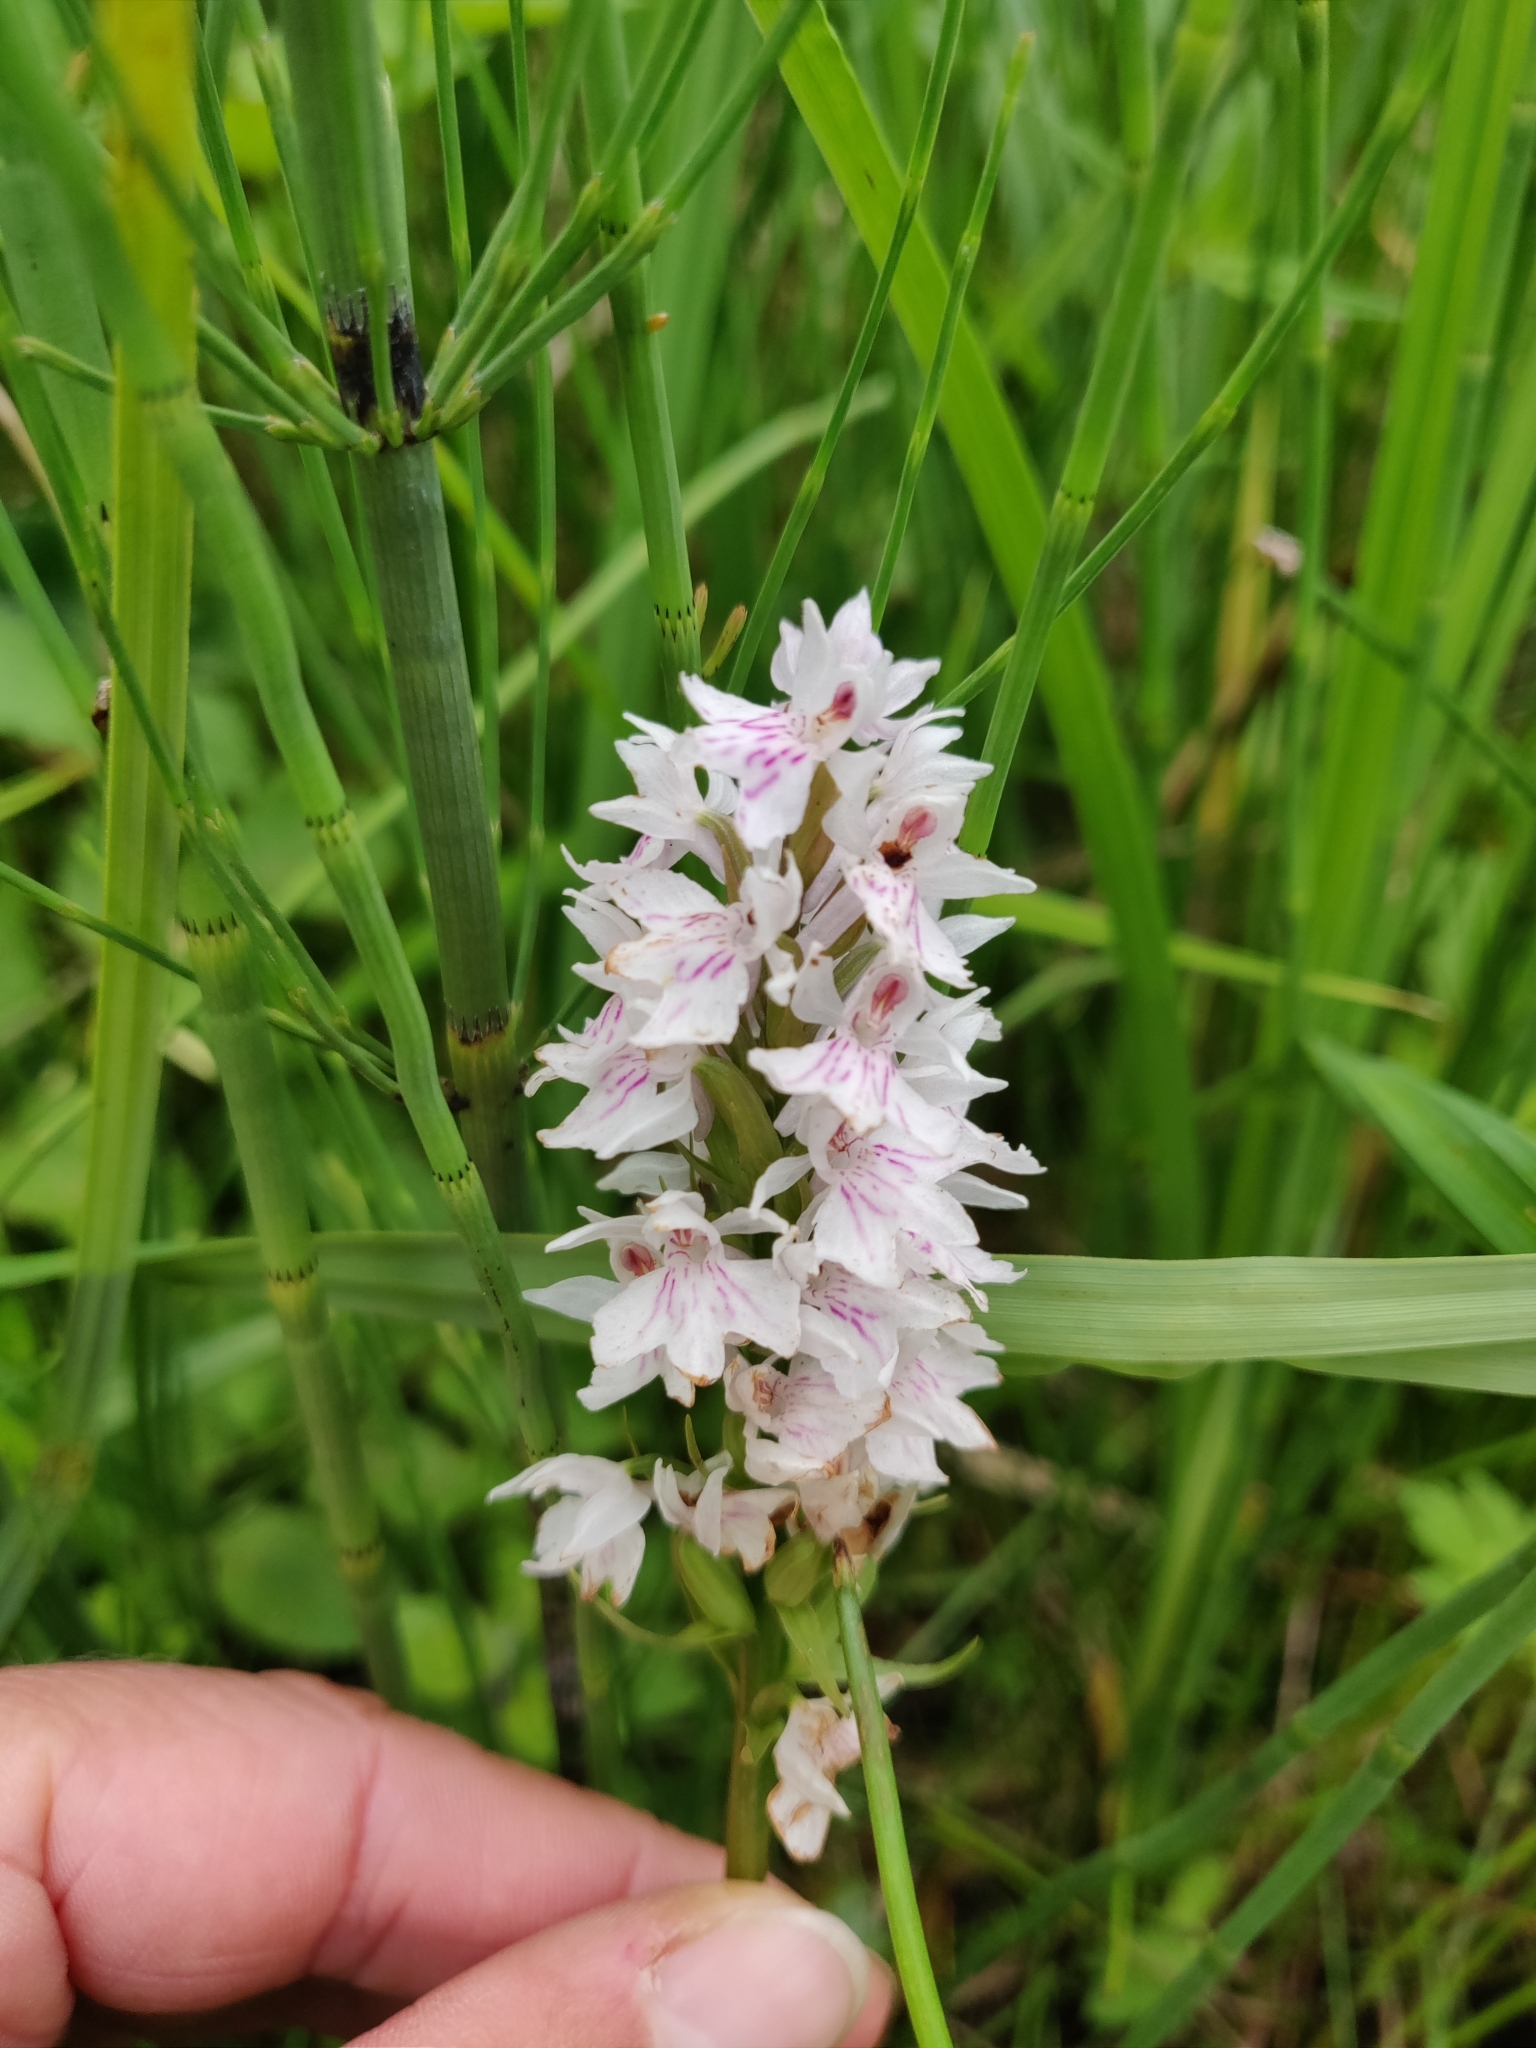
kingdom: Plantae
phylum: Tracheophyta
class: Liliopsida
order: Asparagales
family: Orchidaceae
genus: Dactylorhiza
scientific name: Dactylorhiza maculata
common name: Heath spotted-orchid
